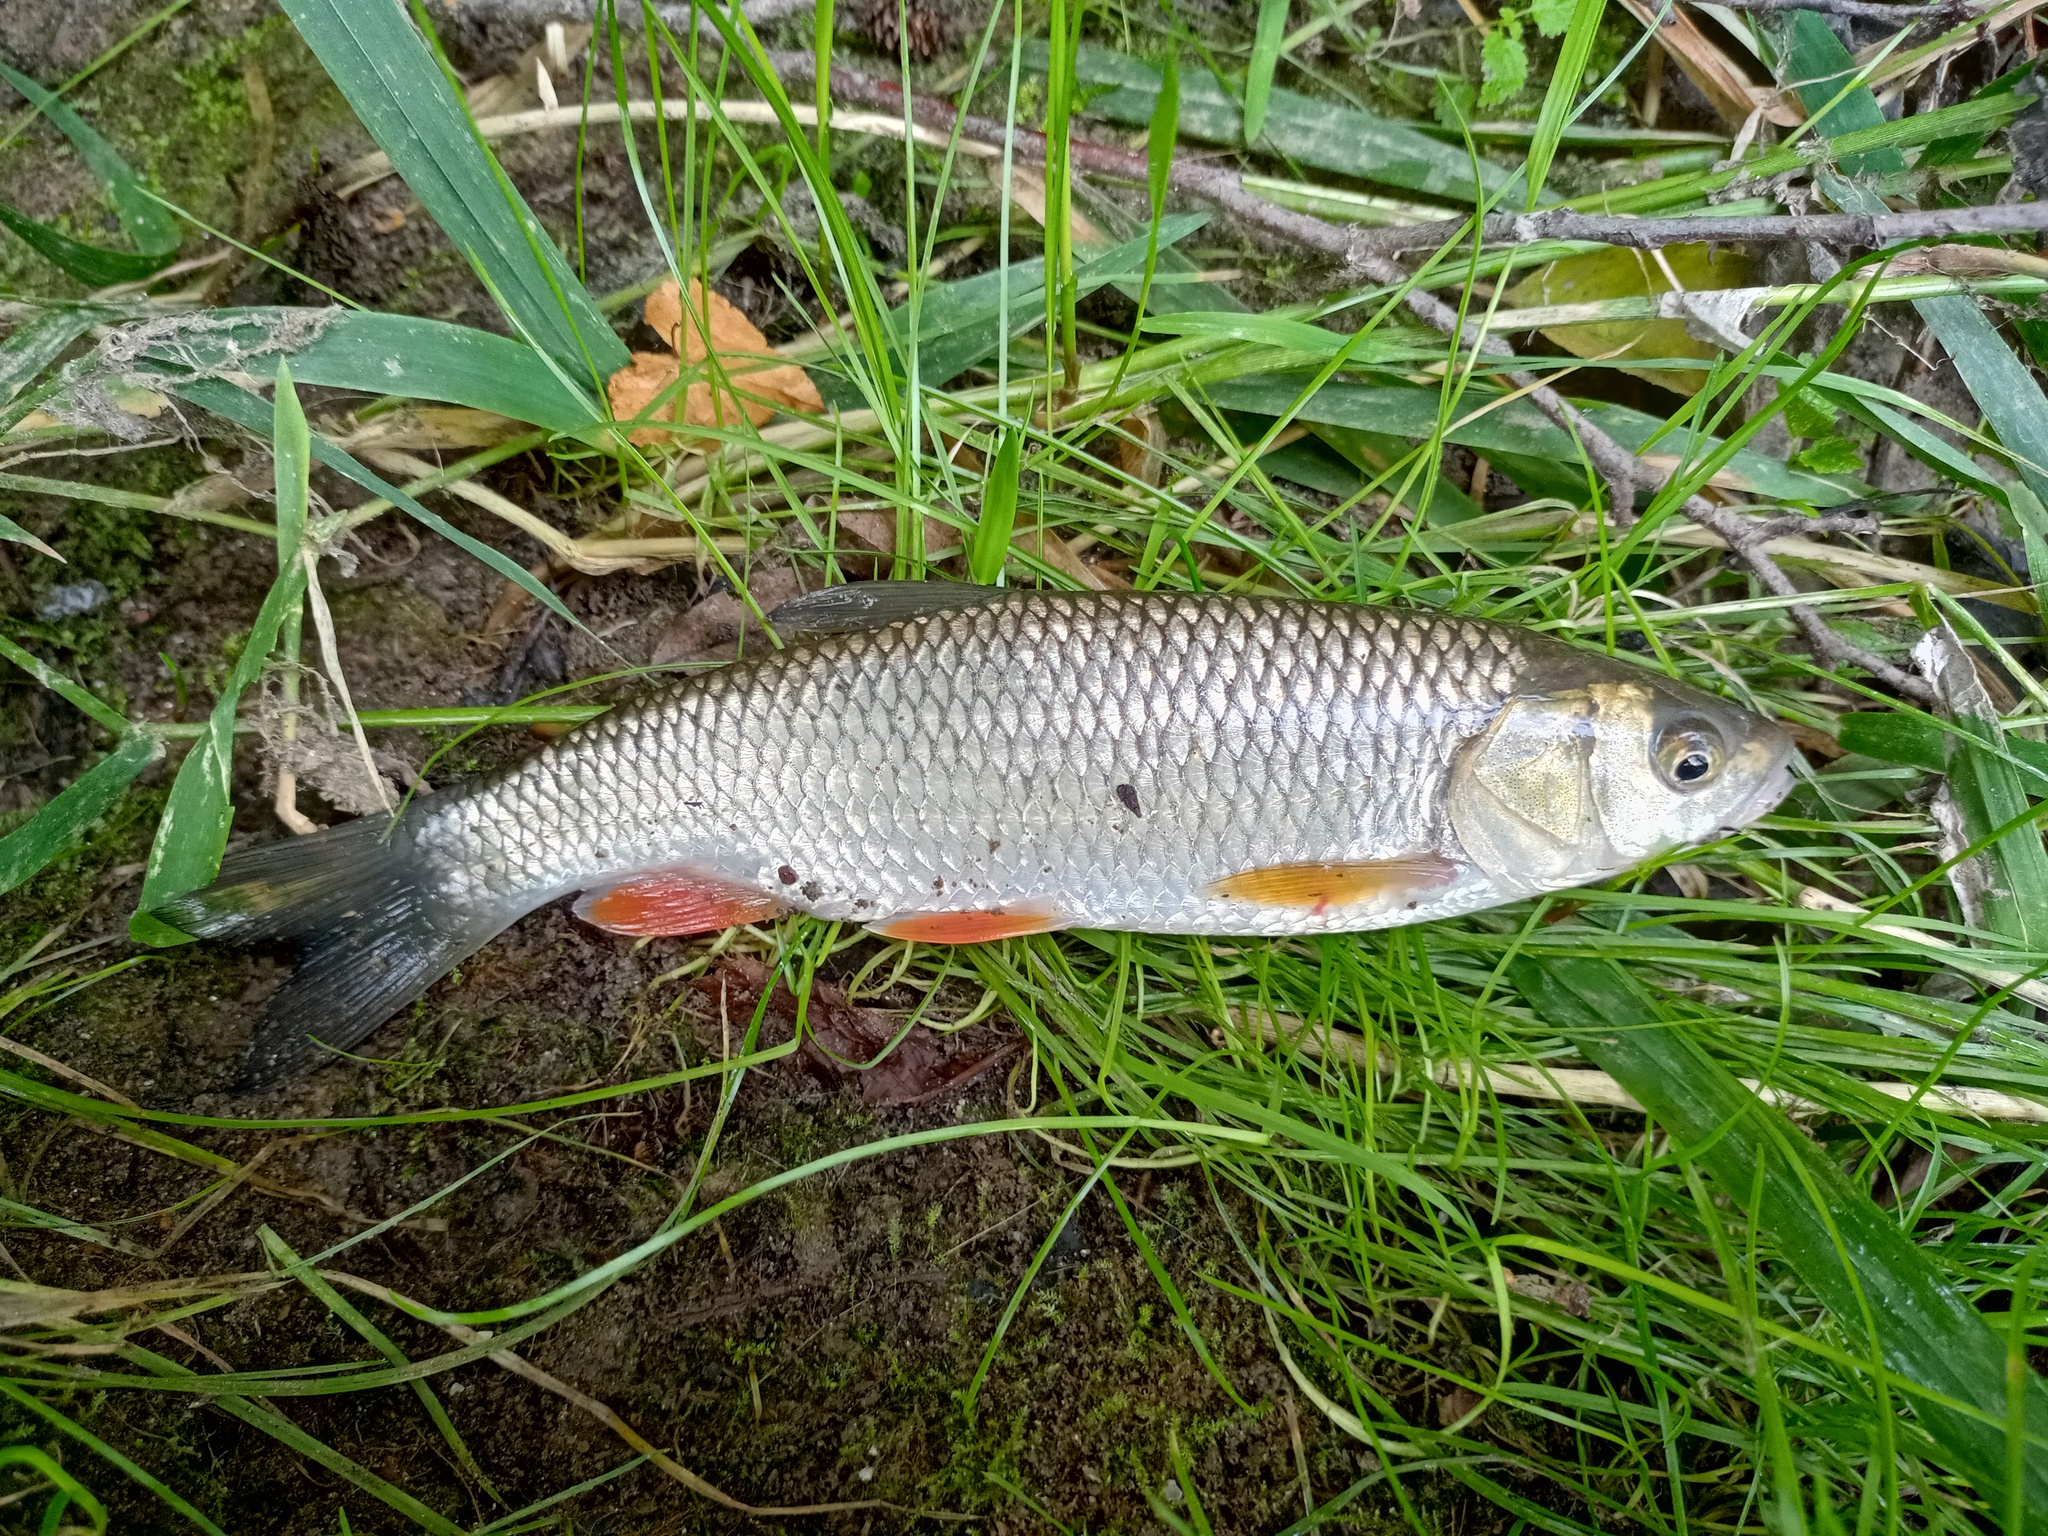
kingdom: Animalia
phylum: Chordata
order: Cypriniformes
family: Cyprinidae
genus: Squalius
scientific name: Squalius cephalus
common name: Chub
